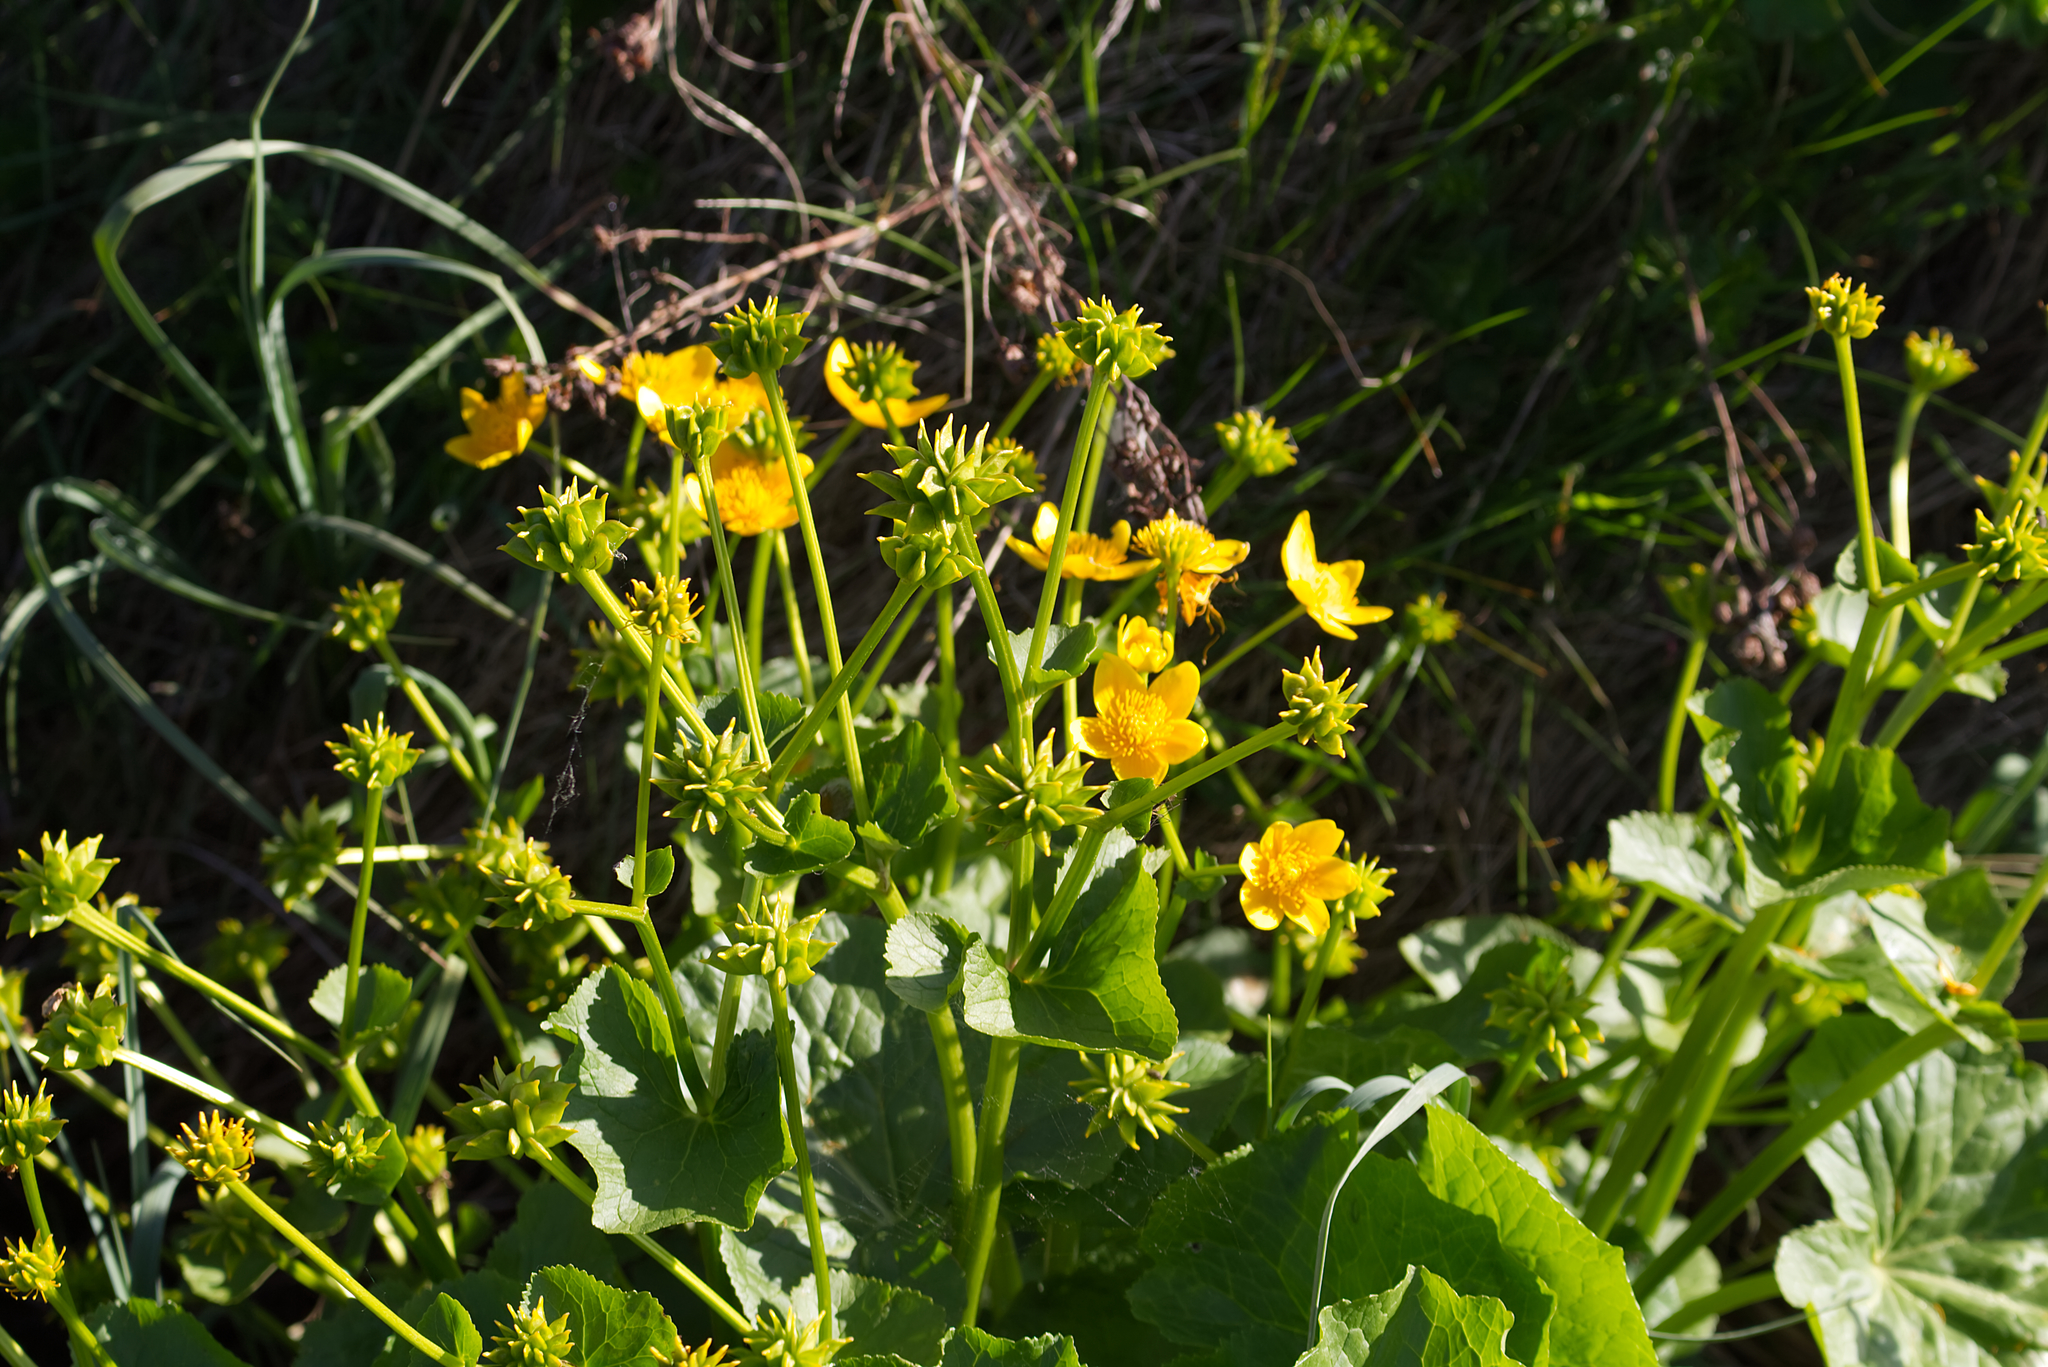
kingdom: Plantae
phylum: Tracheophyta
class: Magnoliopsida
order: Ranunculales
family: Ranunculaceae
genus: Caltha
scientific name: Caltha palustris
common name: Marsh marigold
